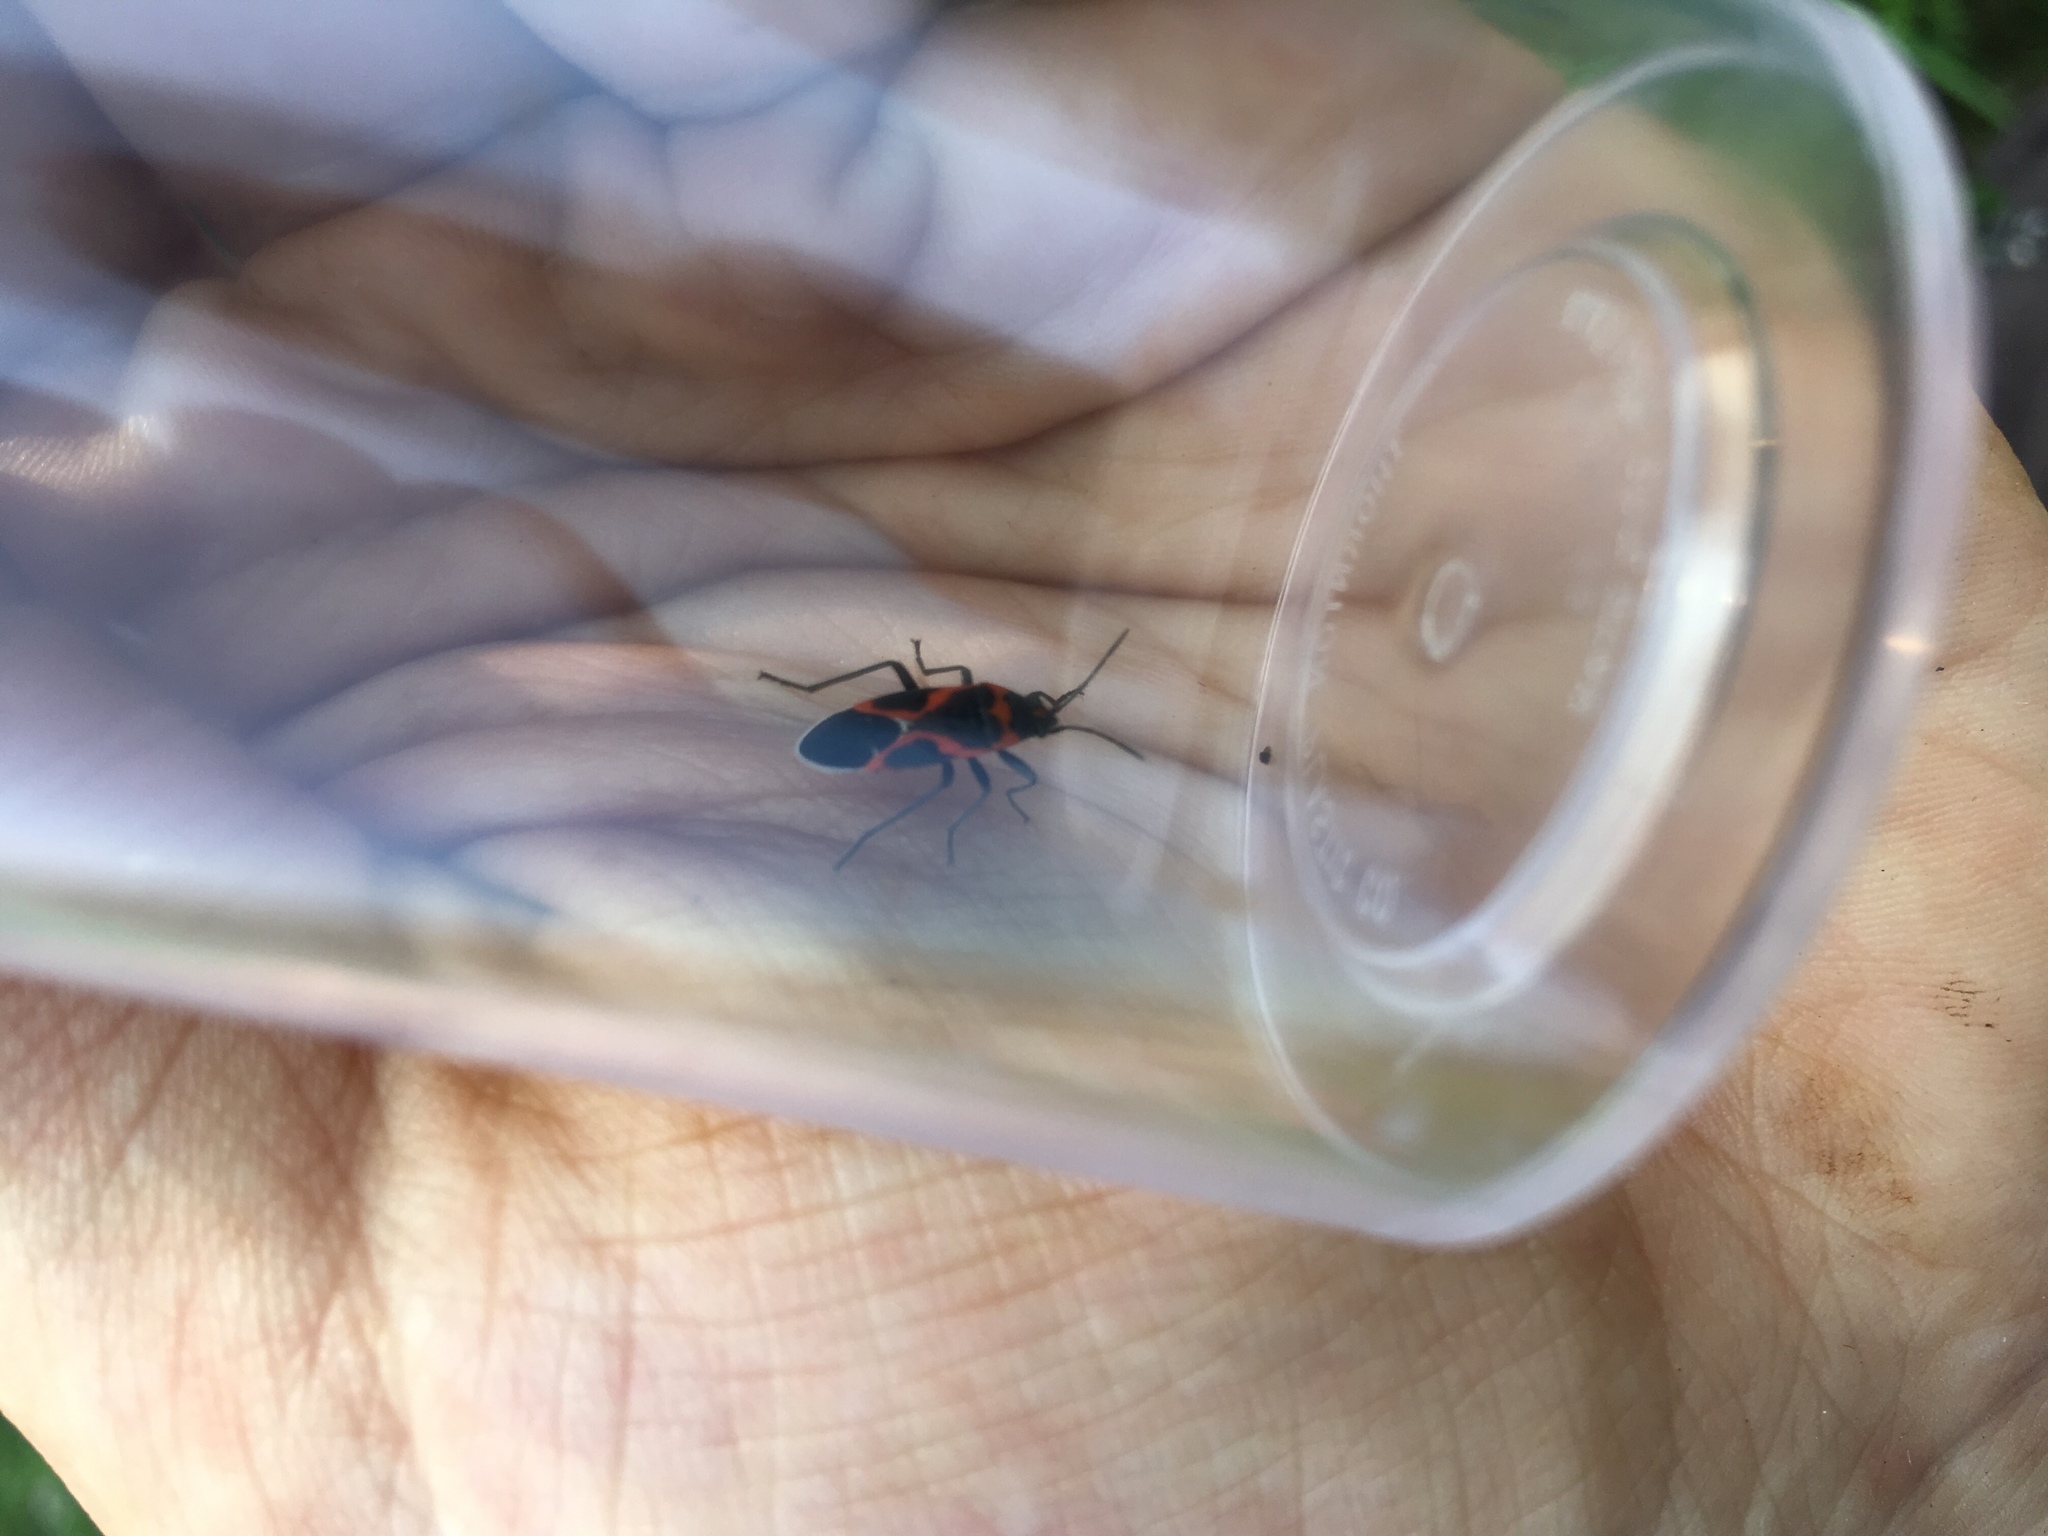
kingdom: Animalia
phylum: Arthropoda
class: Insecta
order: Hemiptera
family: Lygaeidae
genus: Lygaeus
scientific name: Lygaeus kalmii
